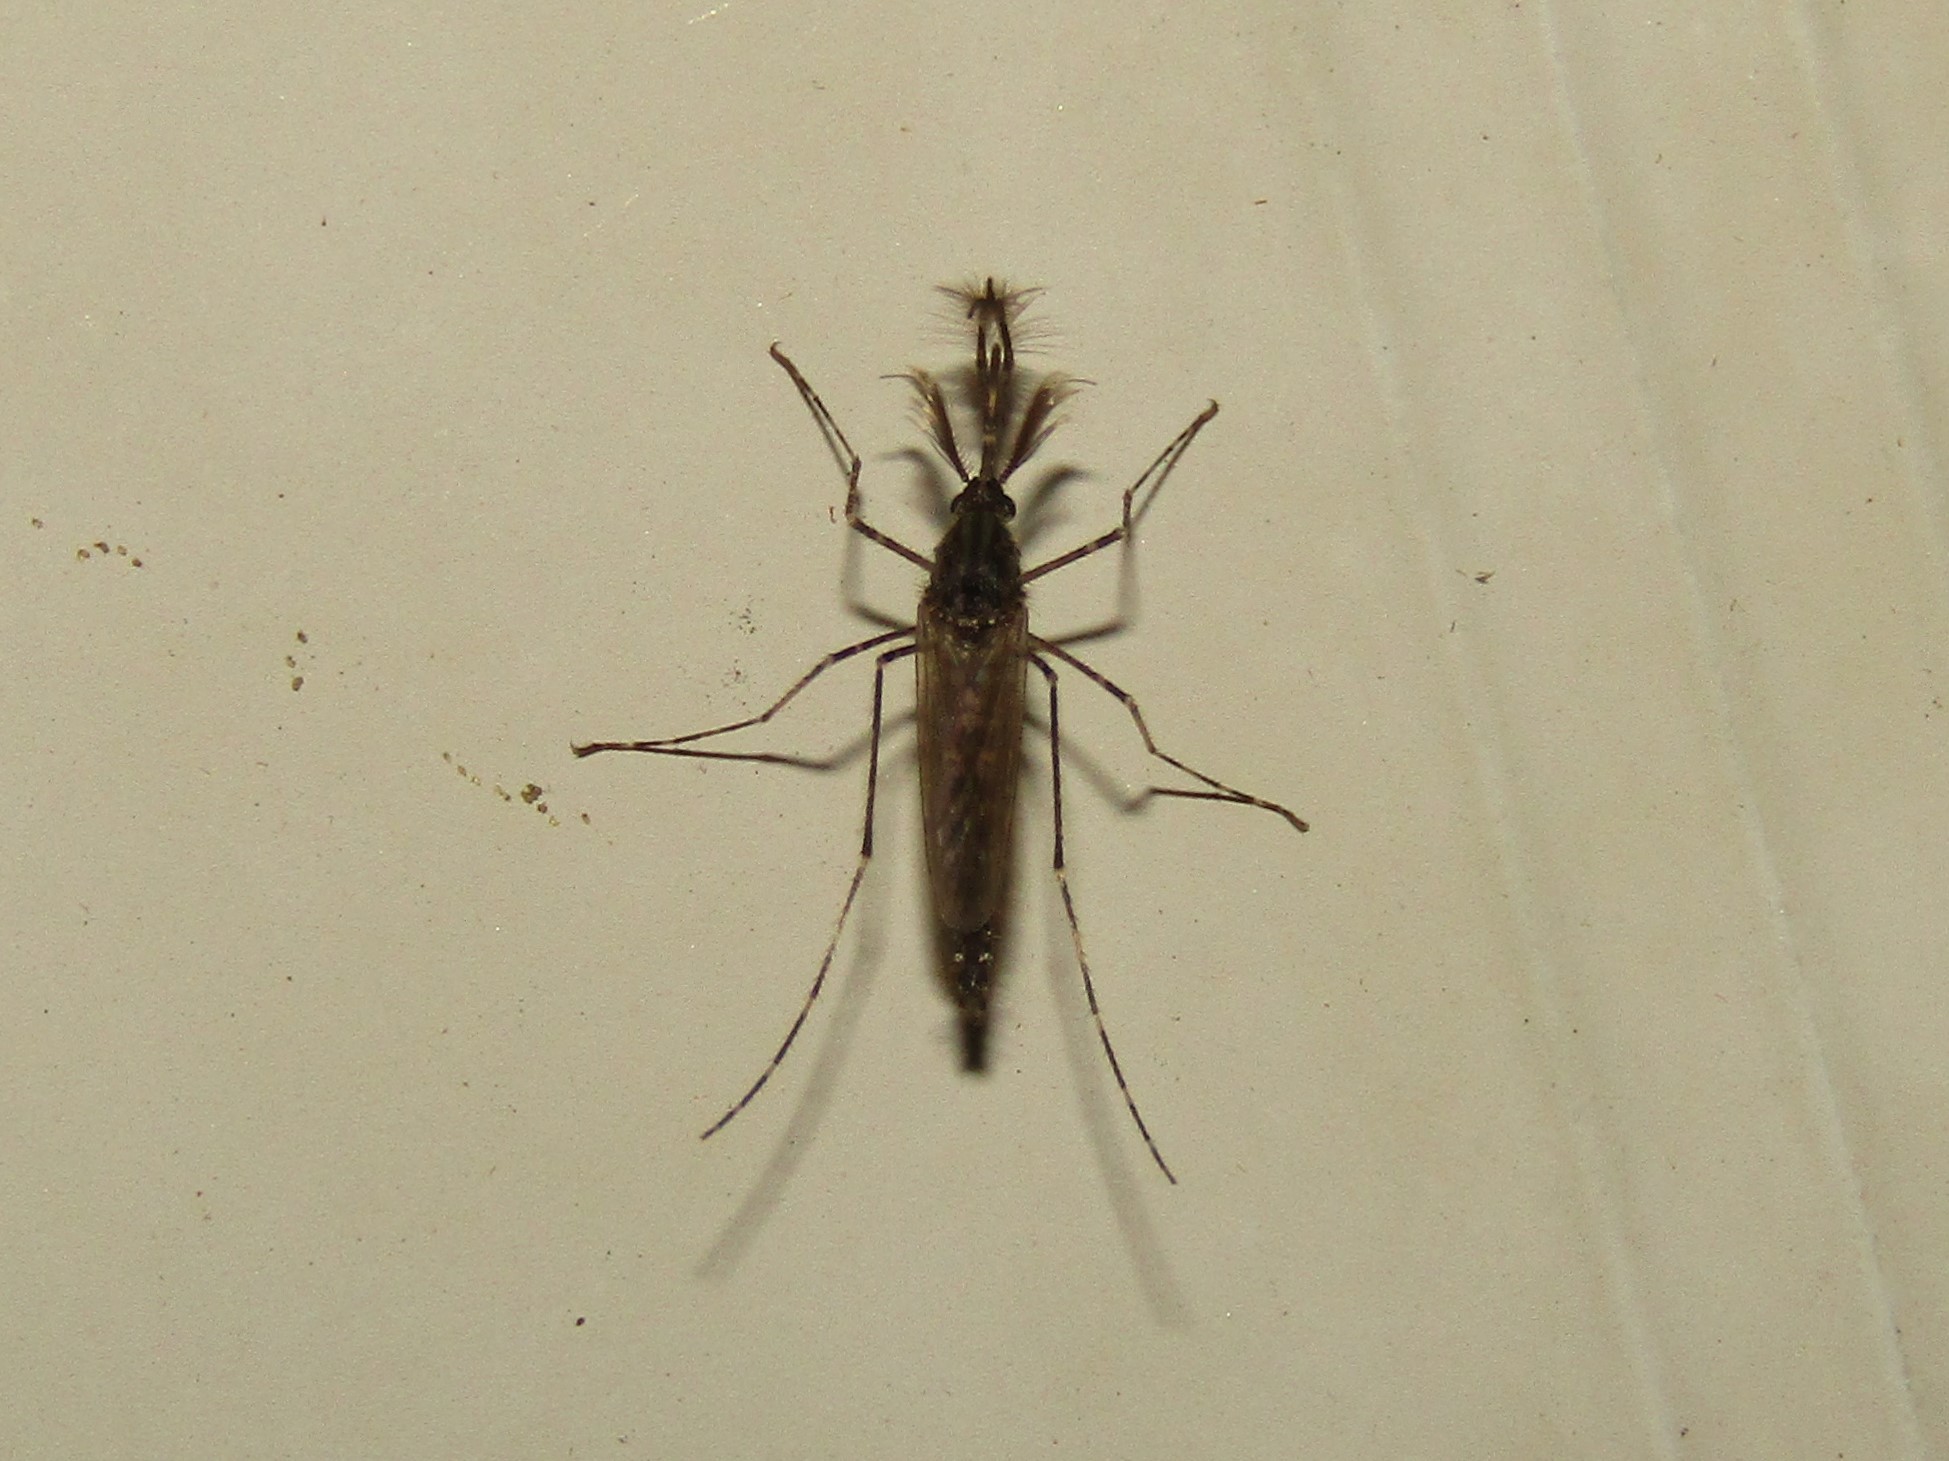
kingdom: Animalia
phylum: Arthropoda
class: Insecta
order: Diptera
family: Culicidae
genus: Psorophora
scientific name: Psorophora columbiae
